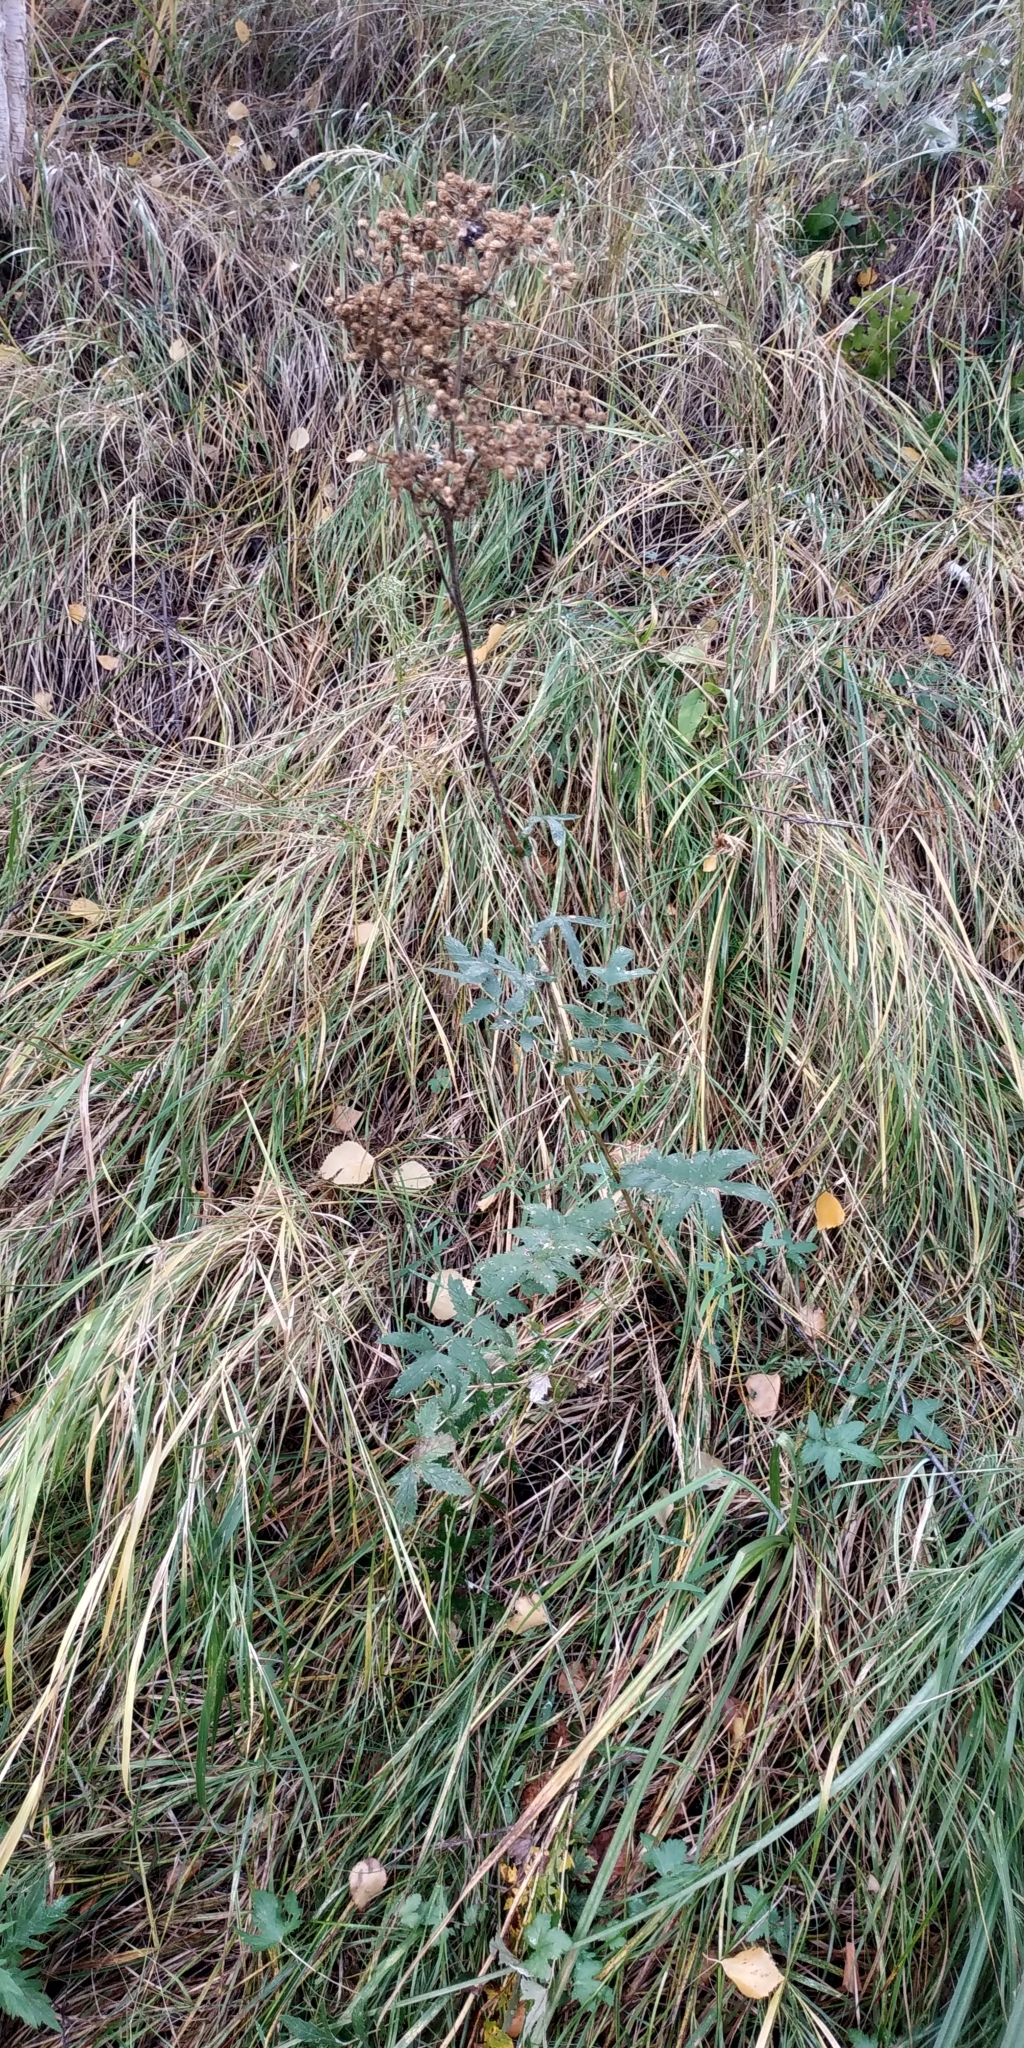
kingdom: Plantae
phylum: Tracheophyta
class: Magnoliopsida
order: Rosales
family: Rosaceae
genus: Filipendula
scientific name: Filipendula ulmaria
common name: Meadowsweet
